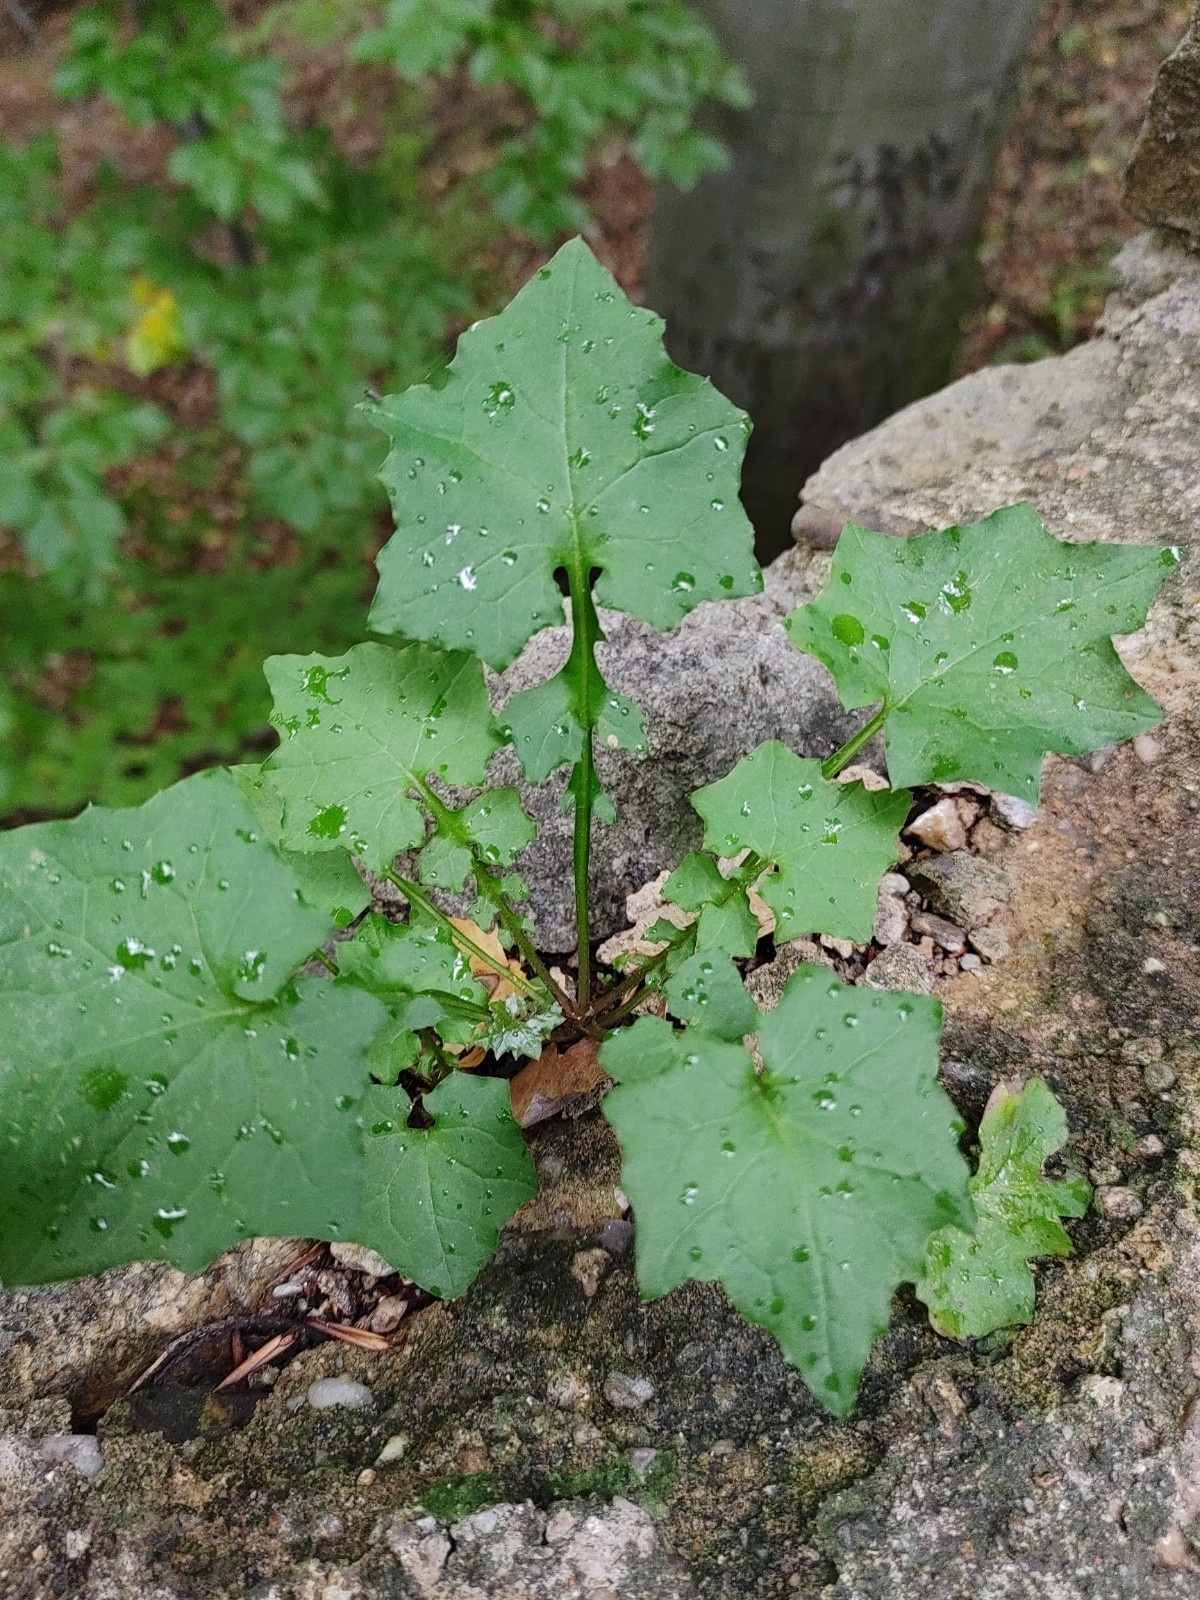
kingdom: Plantae
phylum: Tracheophyta
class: Magnoliopsida
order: Asterales
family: Asteraceae
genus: Mycelis
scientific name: Mycelis muralis
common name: Wall lettuce
